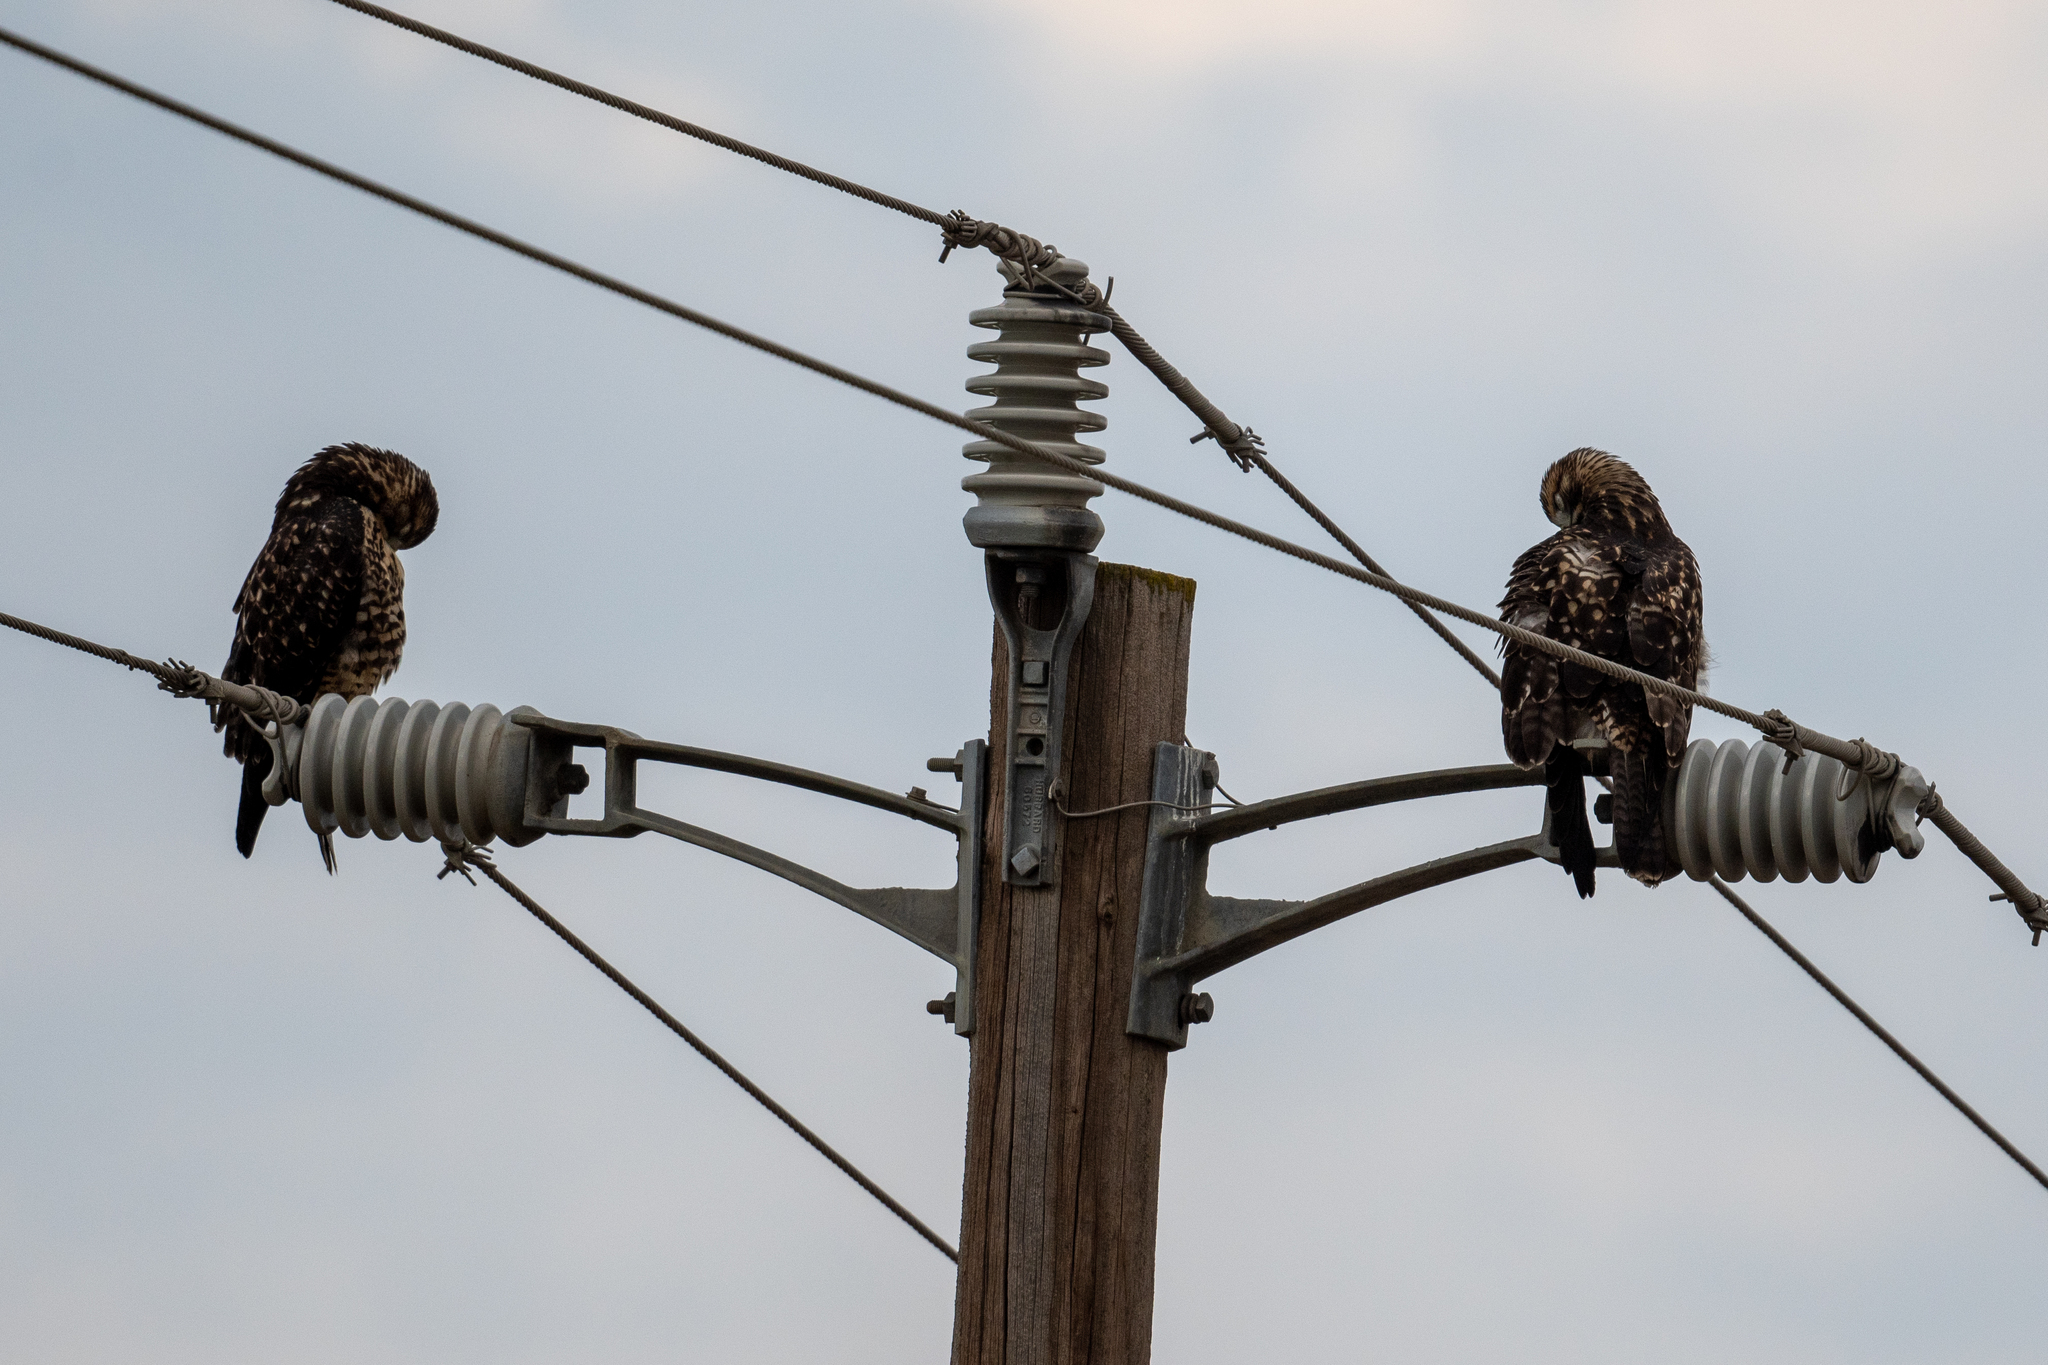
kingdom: Animalia
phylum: Chordata
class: Aves
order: Accipitriformes
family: Accipitridae
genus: Buteo
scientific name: Buteo swainsoni
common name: Swainson's hawk
